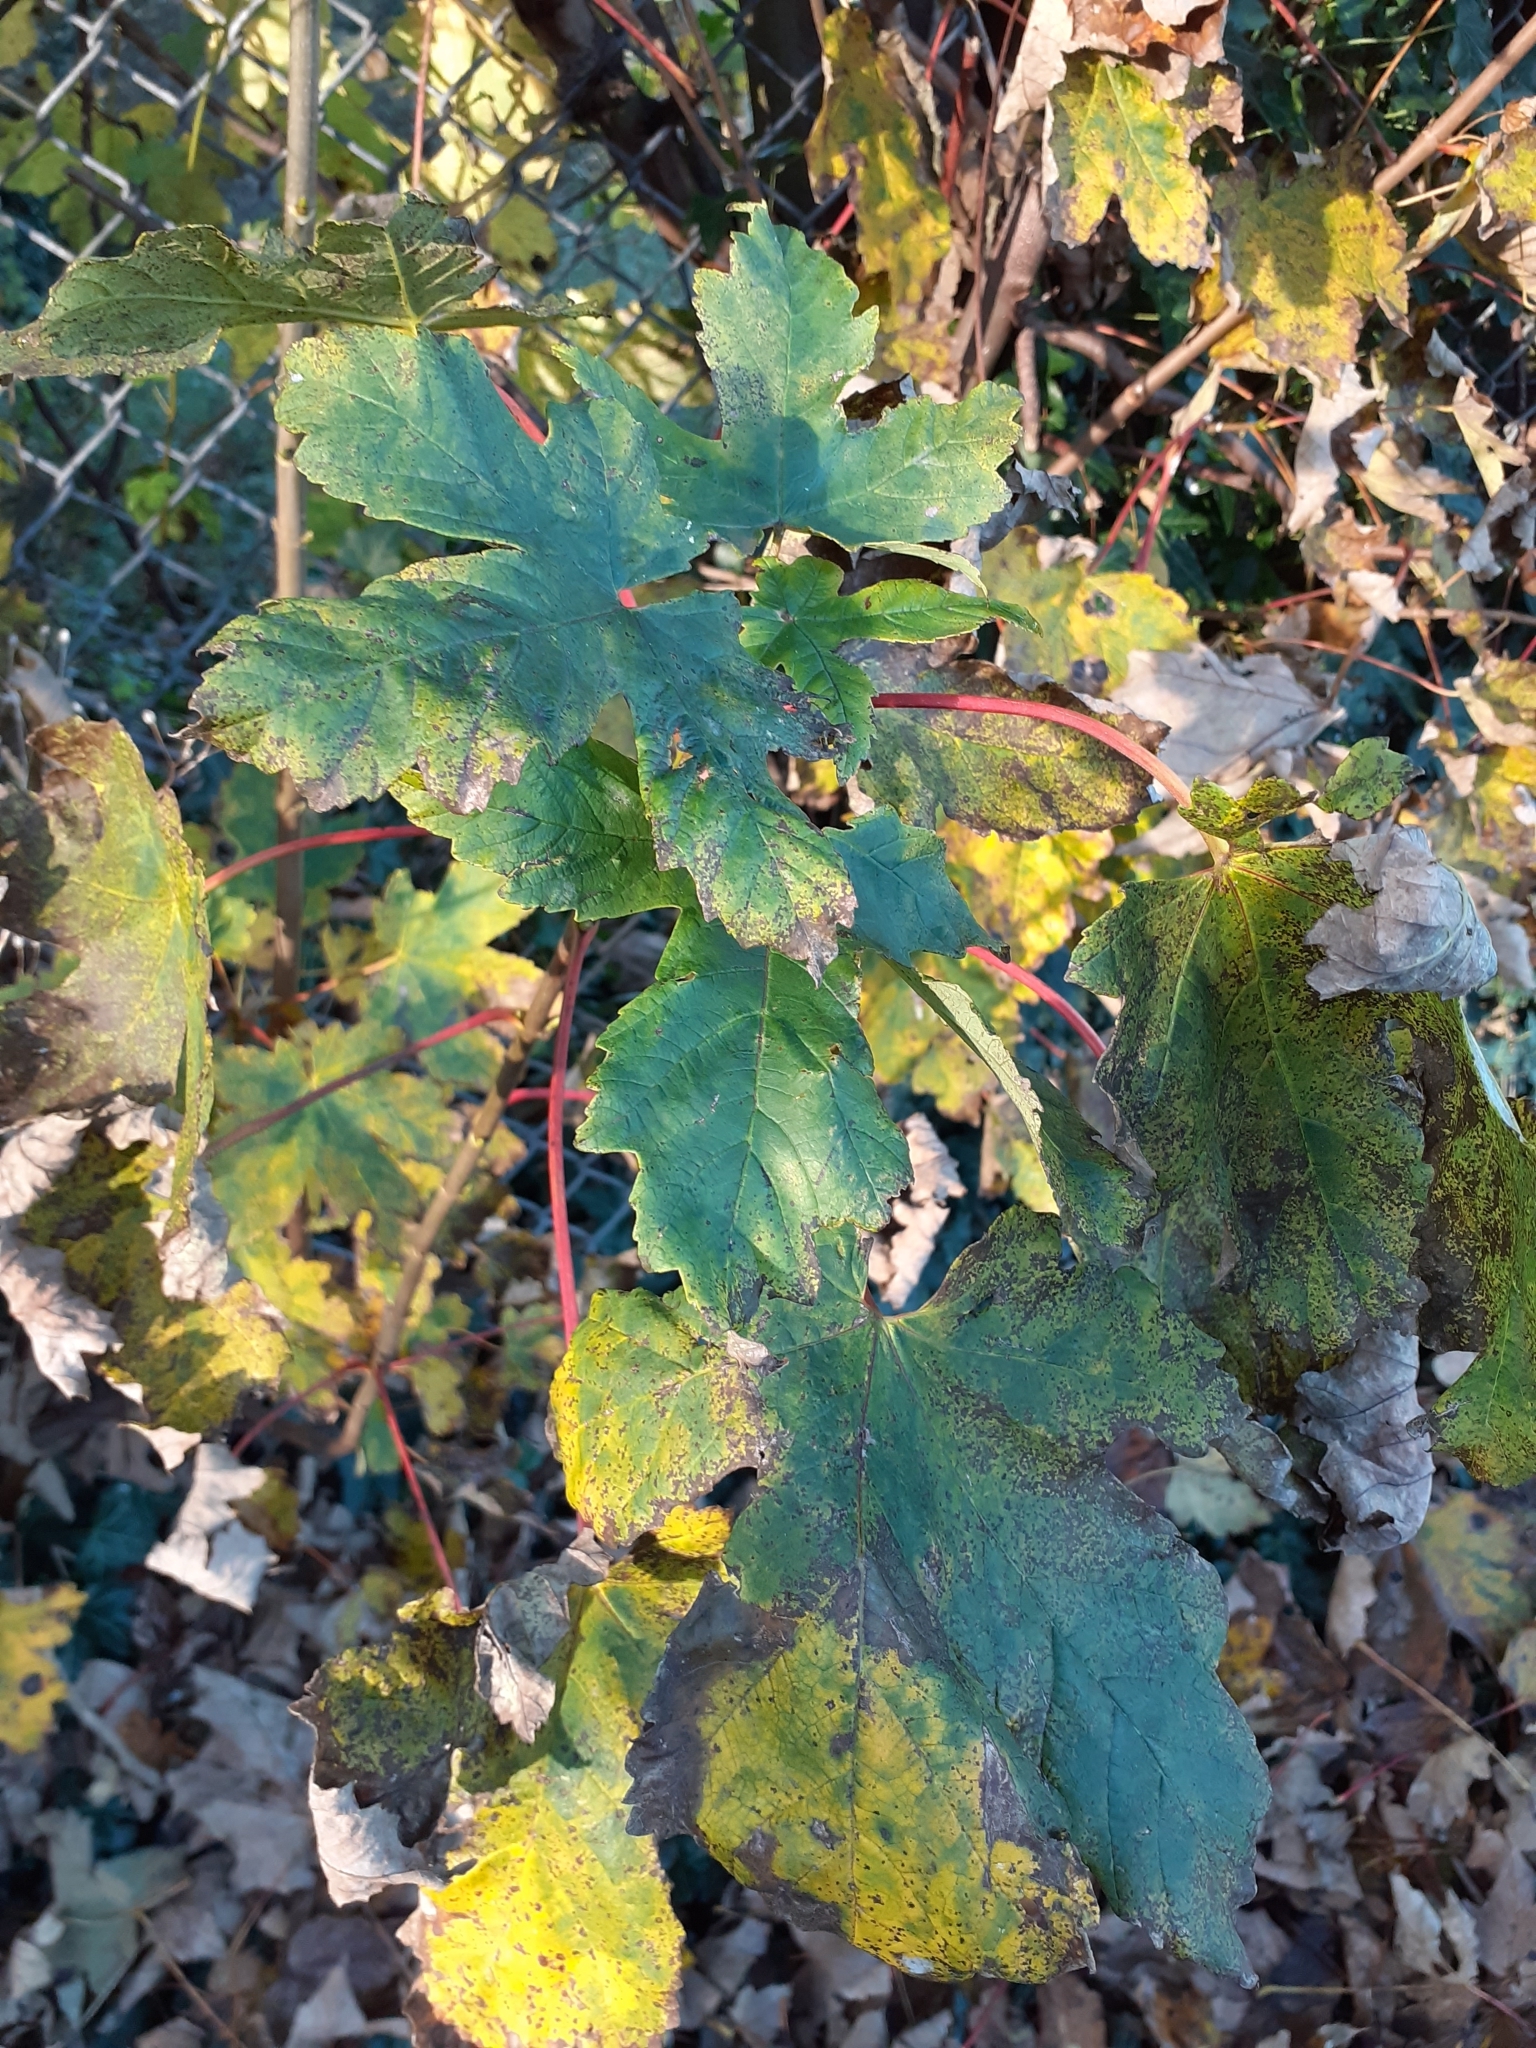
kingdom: Plantae
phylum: Tracheophyta
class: Magnoliopsida
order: Sapindales
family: Sapindaceae
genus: Acer
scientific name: Acer pseudoplatanus
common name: Sycamore
